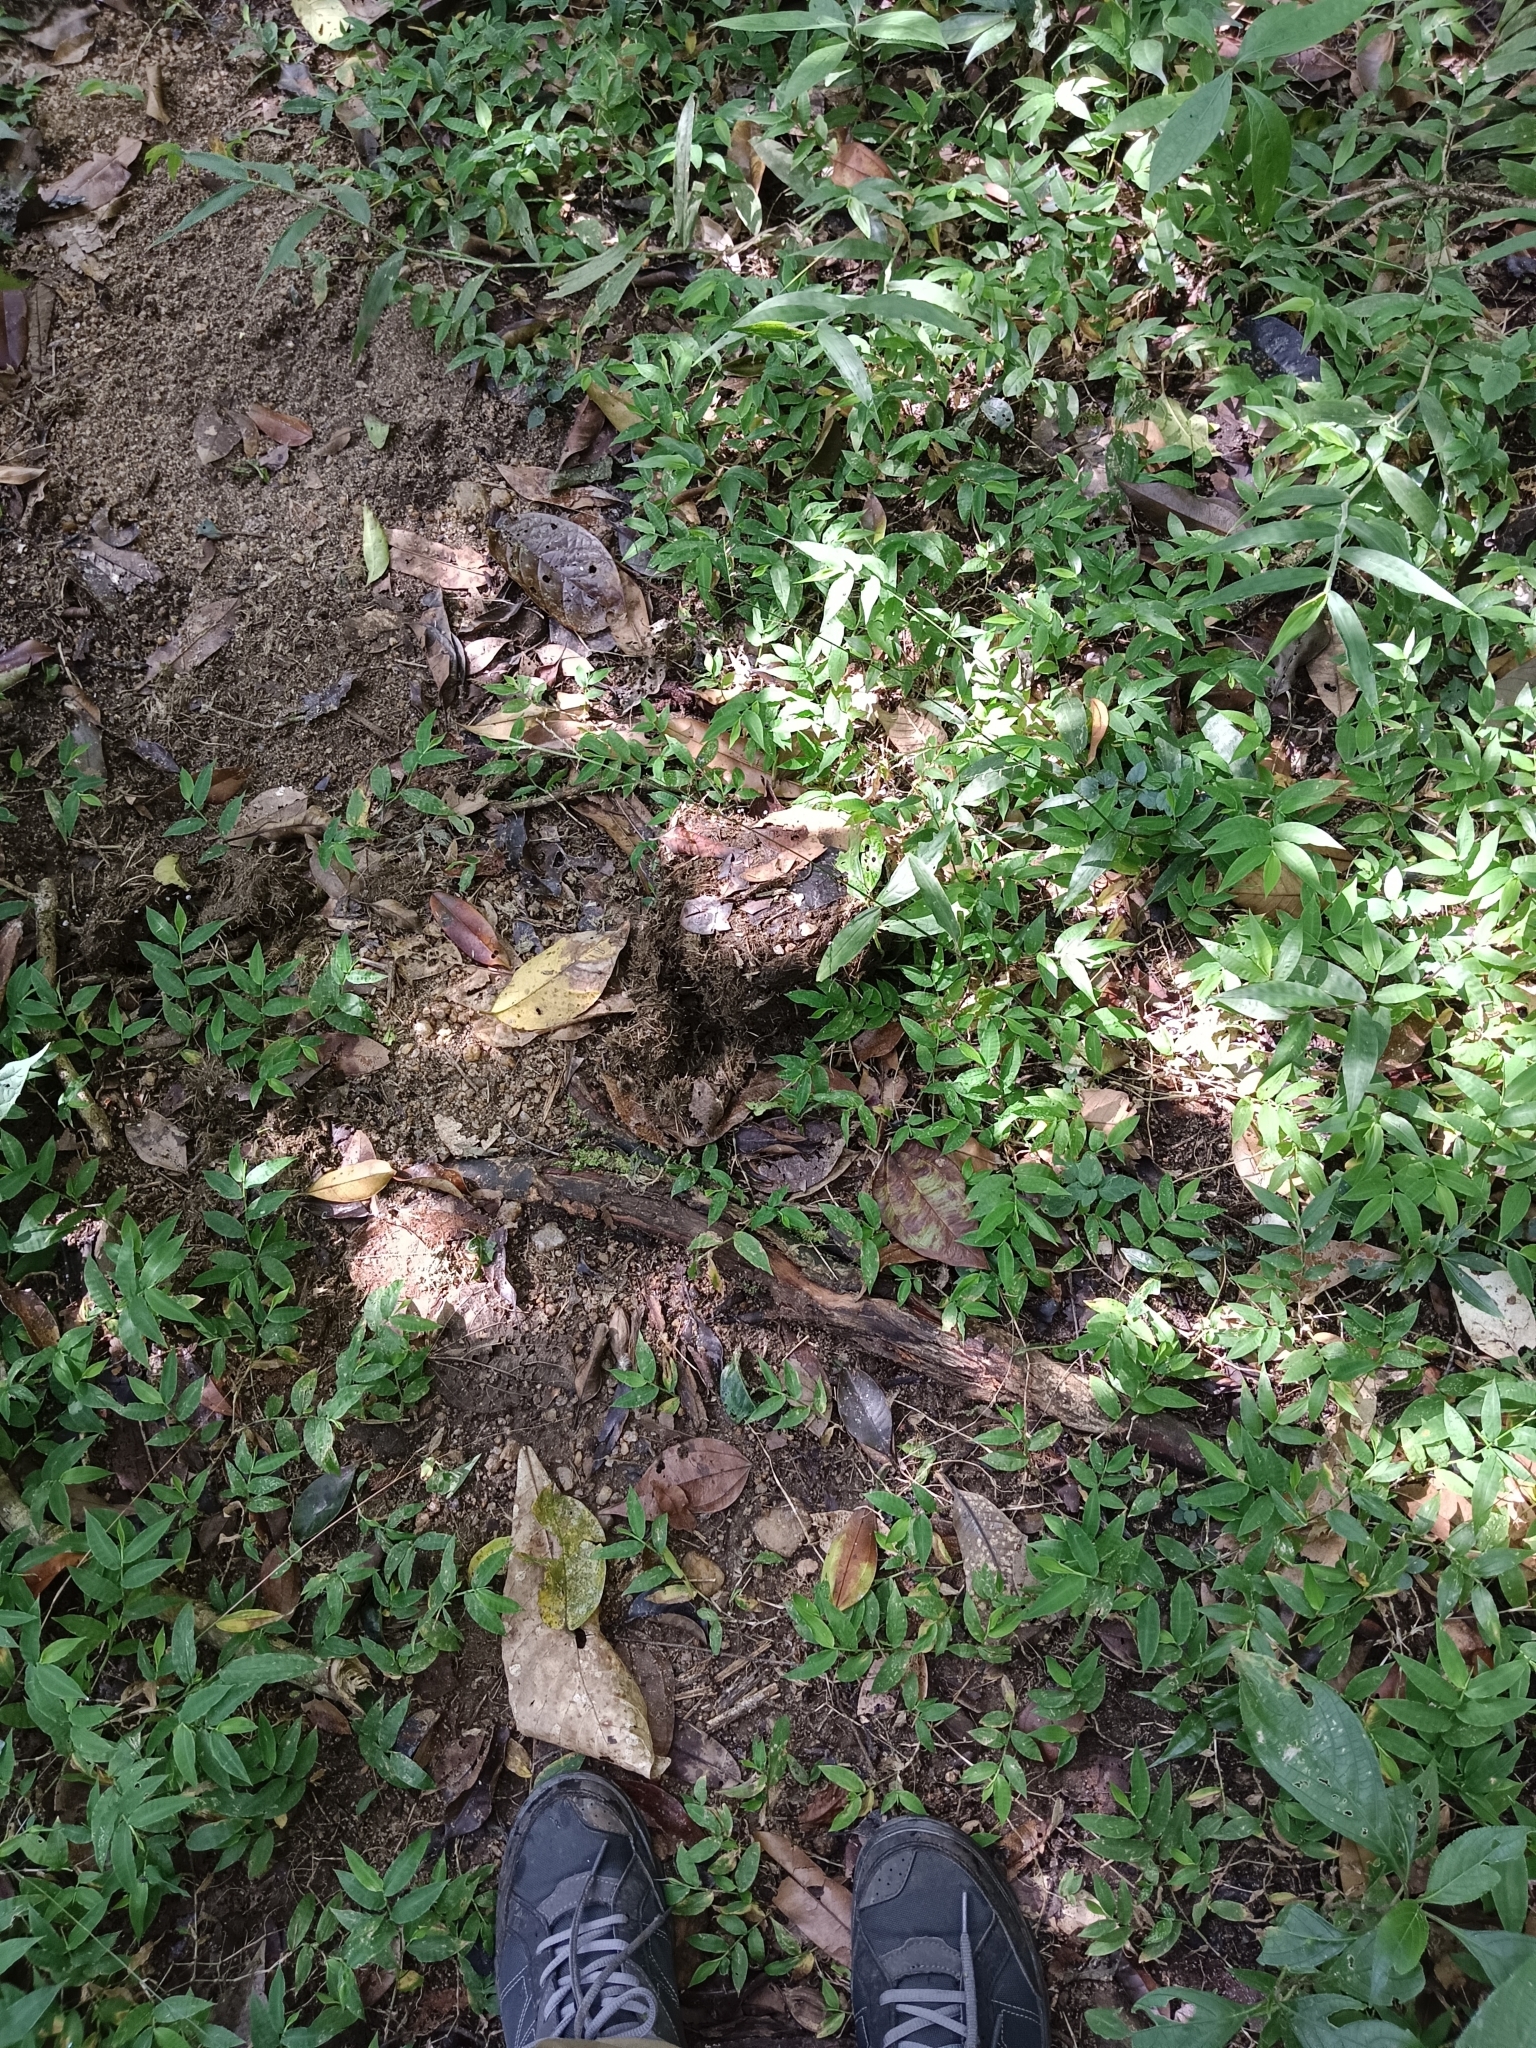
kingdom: Animalia
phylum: Chordata
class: Mammalia
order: Proboscidea
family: Elephantidae
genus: Elephas
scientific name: Elephas maximus
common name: Asian elephant
